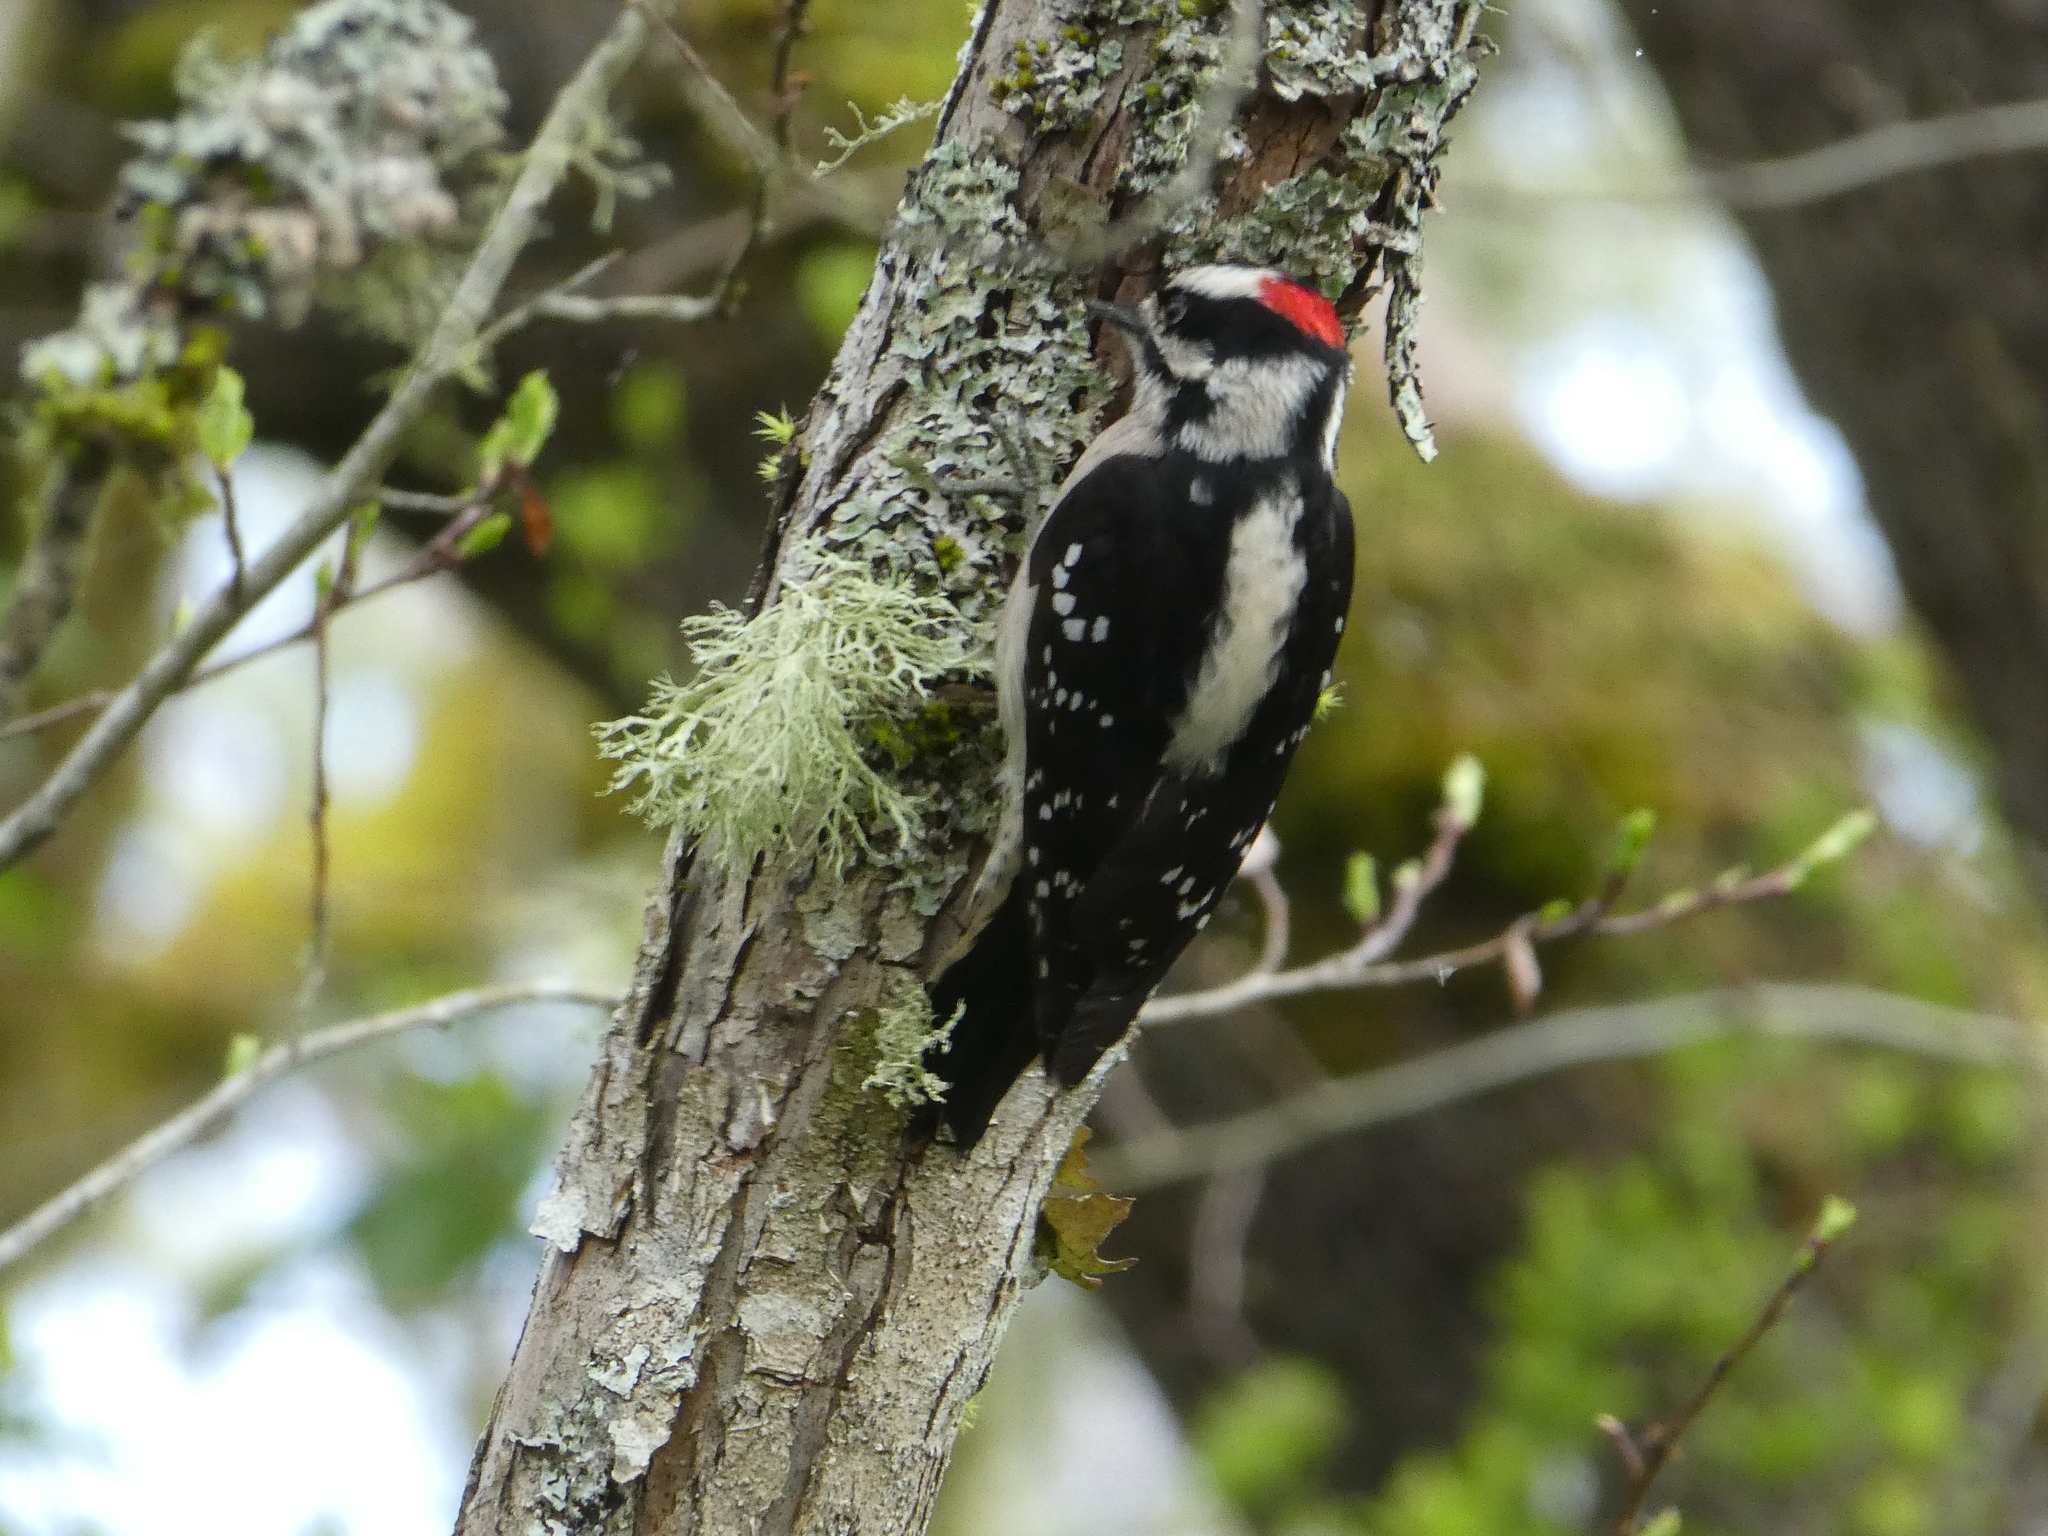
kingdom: Animalia
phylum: Chordata
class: Aves
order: Piciformes
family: Picidae
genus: Dryobates
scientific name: Dryobates pubescens
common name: Downy woodpecker
